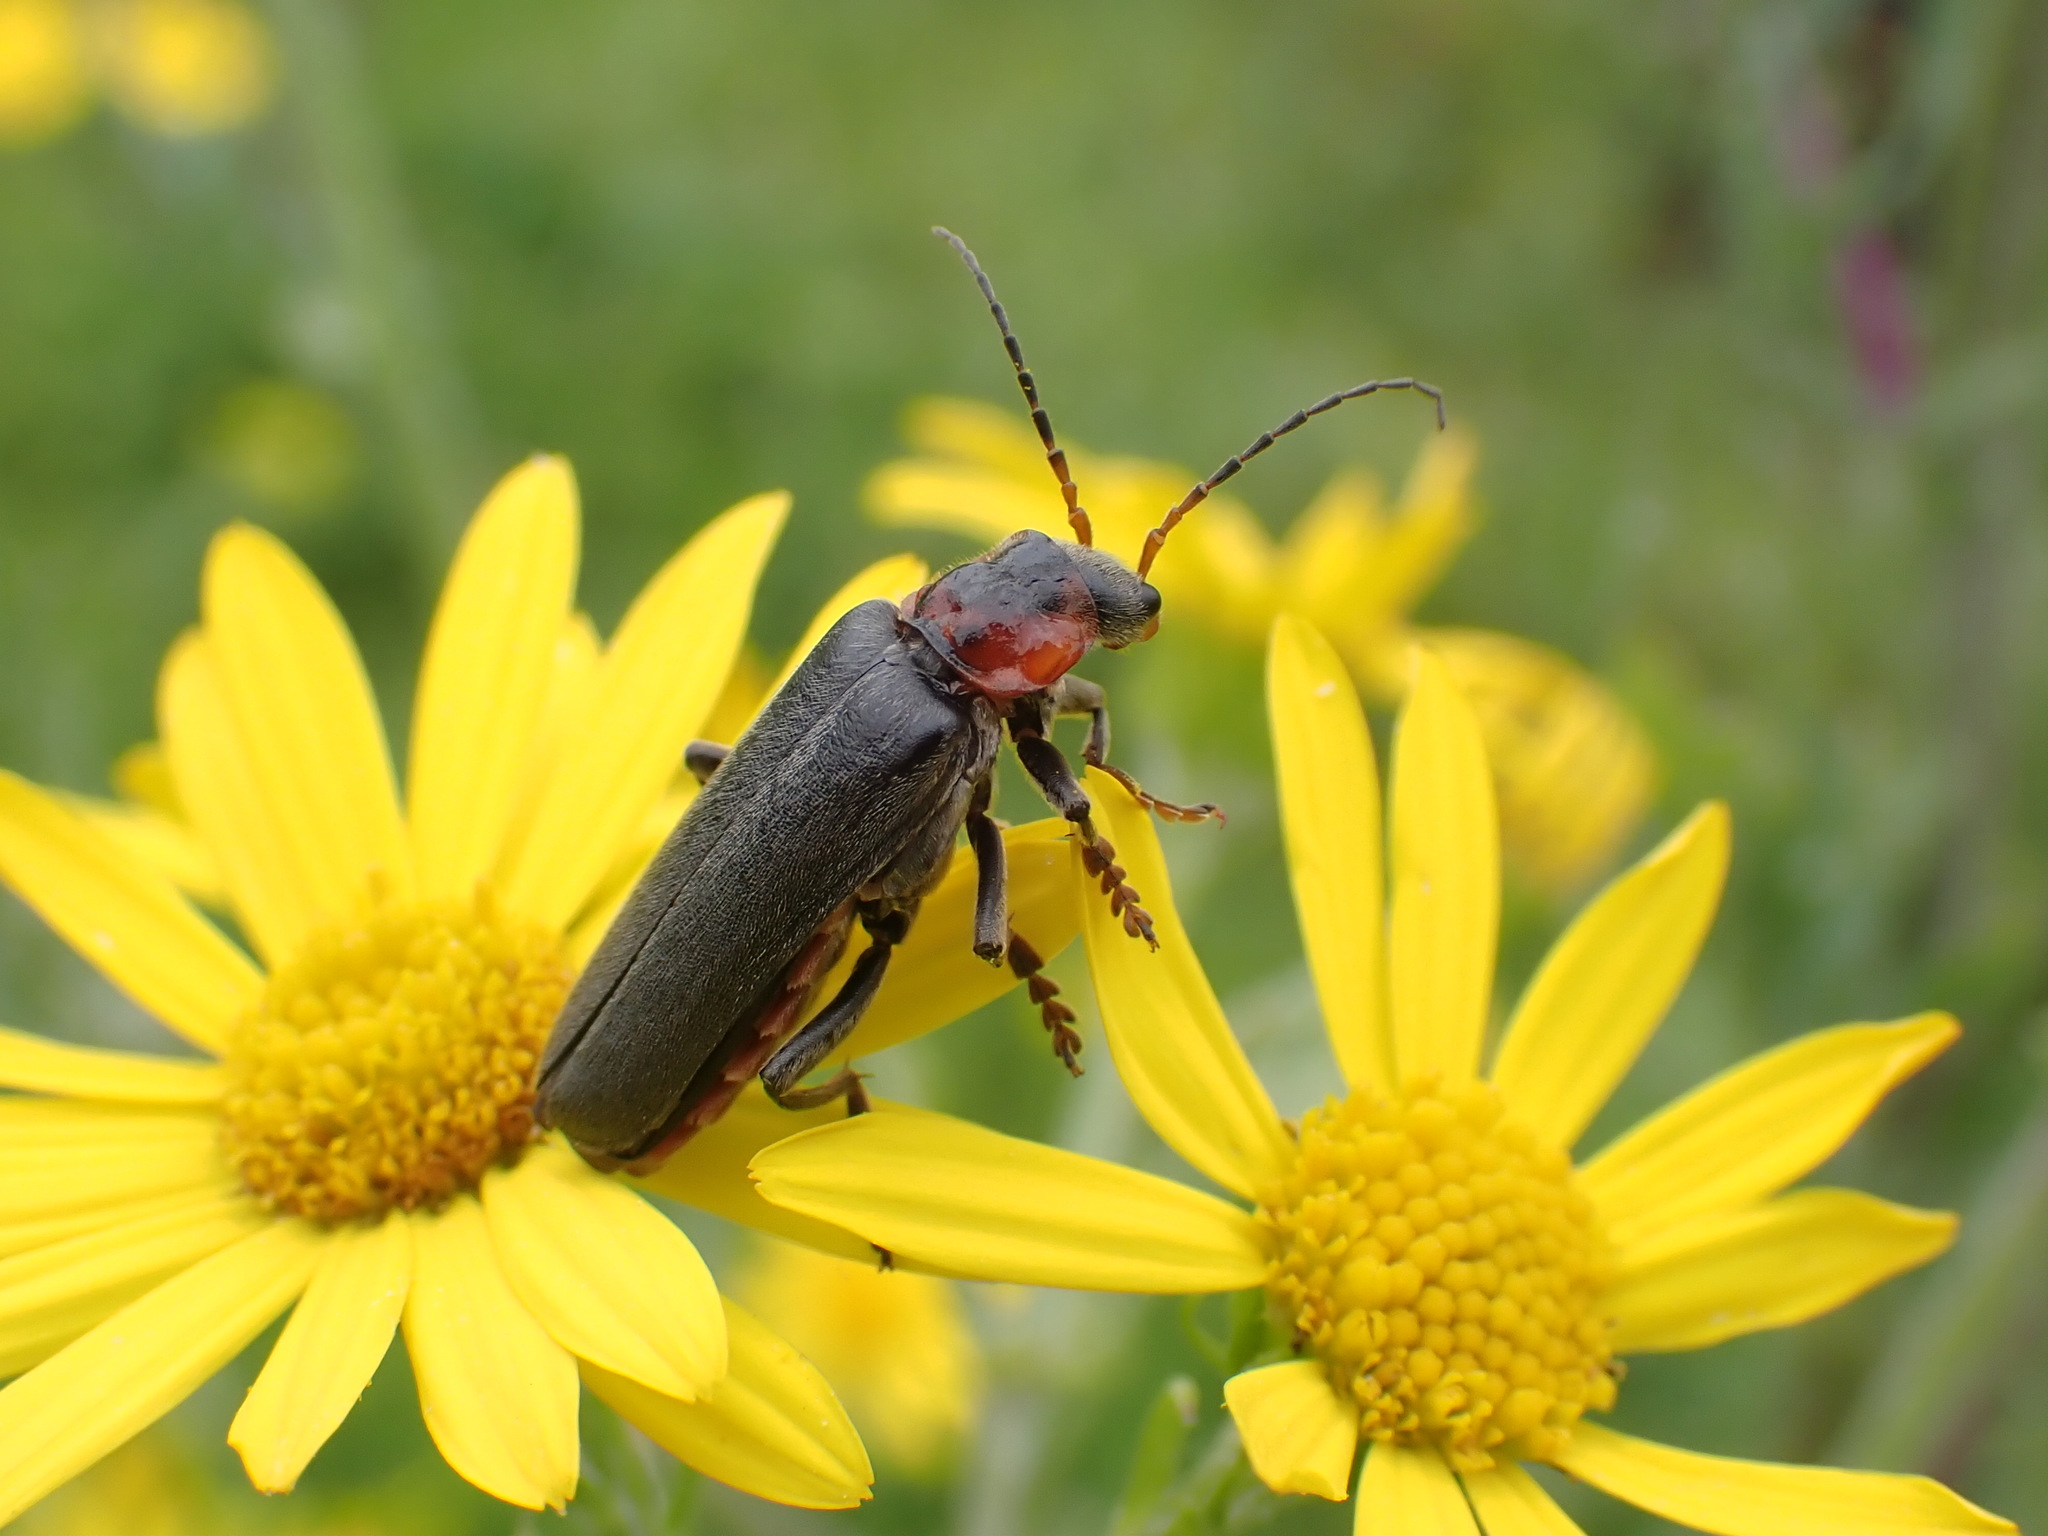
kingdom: Animalia
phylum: Arthropoda
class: Insecta
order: Coleoptera
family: Cantharidae
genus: Cantharis
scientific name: Cantharis fusca
